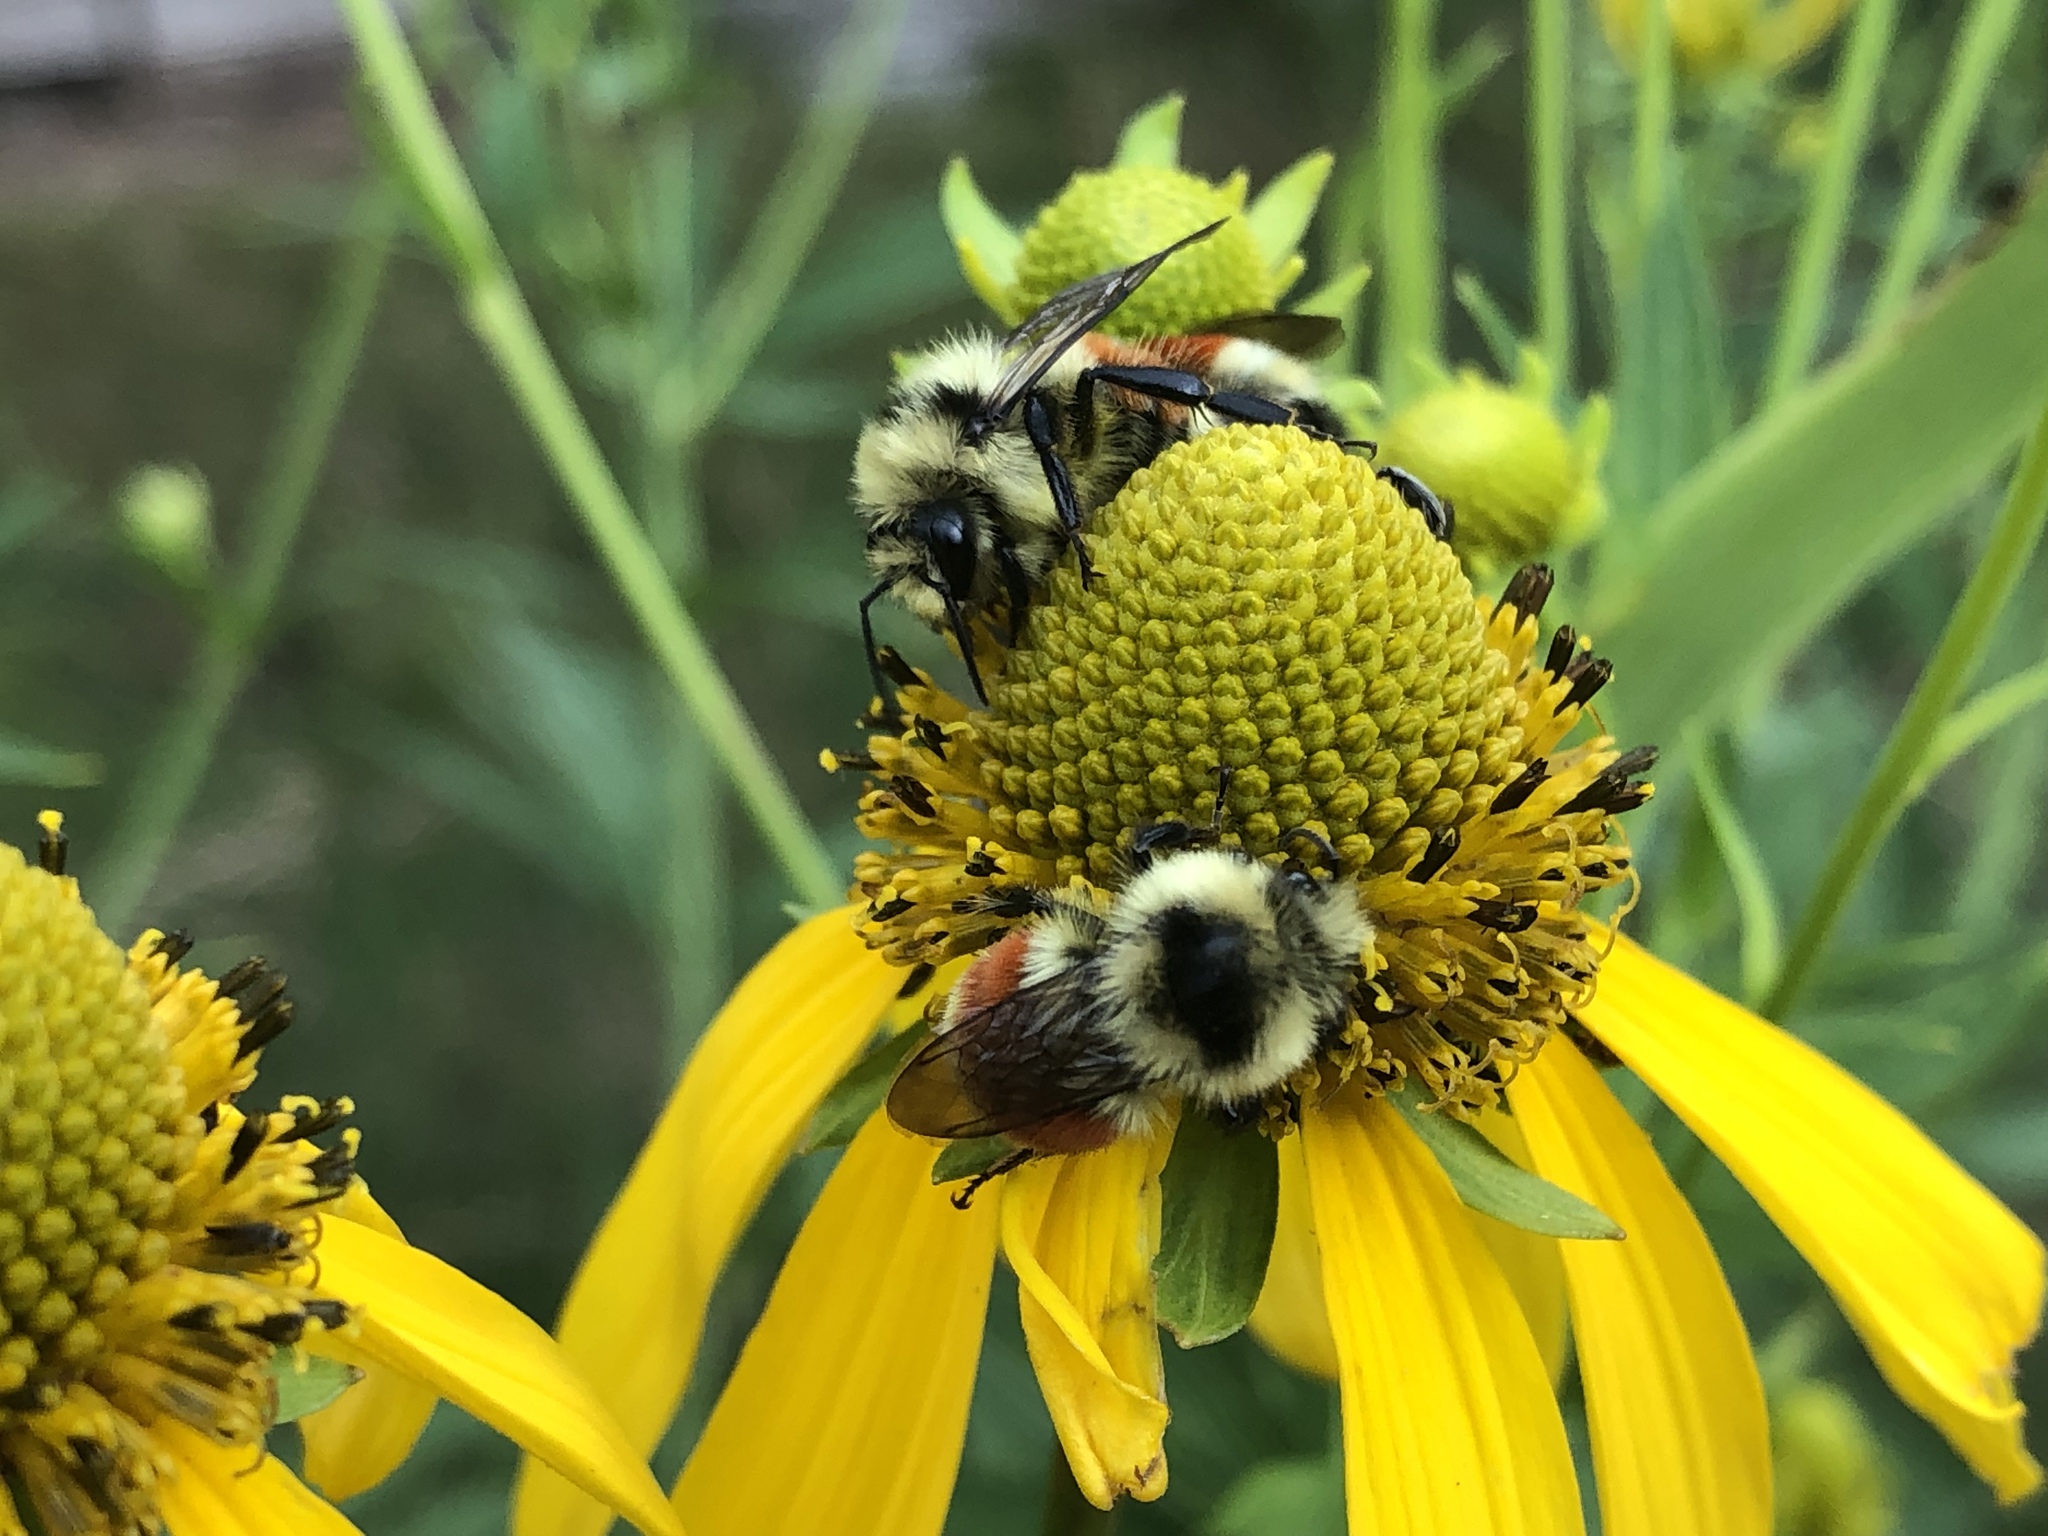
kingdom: Animalia
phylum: Arthropoda
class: Insecta
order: Hymenoptera
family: Apidae
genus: Bombus
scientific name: Bombus huntii
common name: Hunt bumble bee
